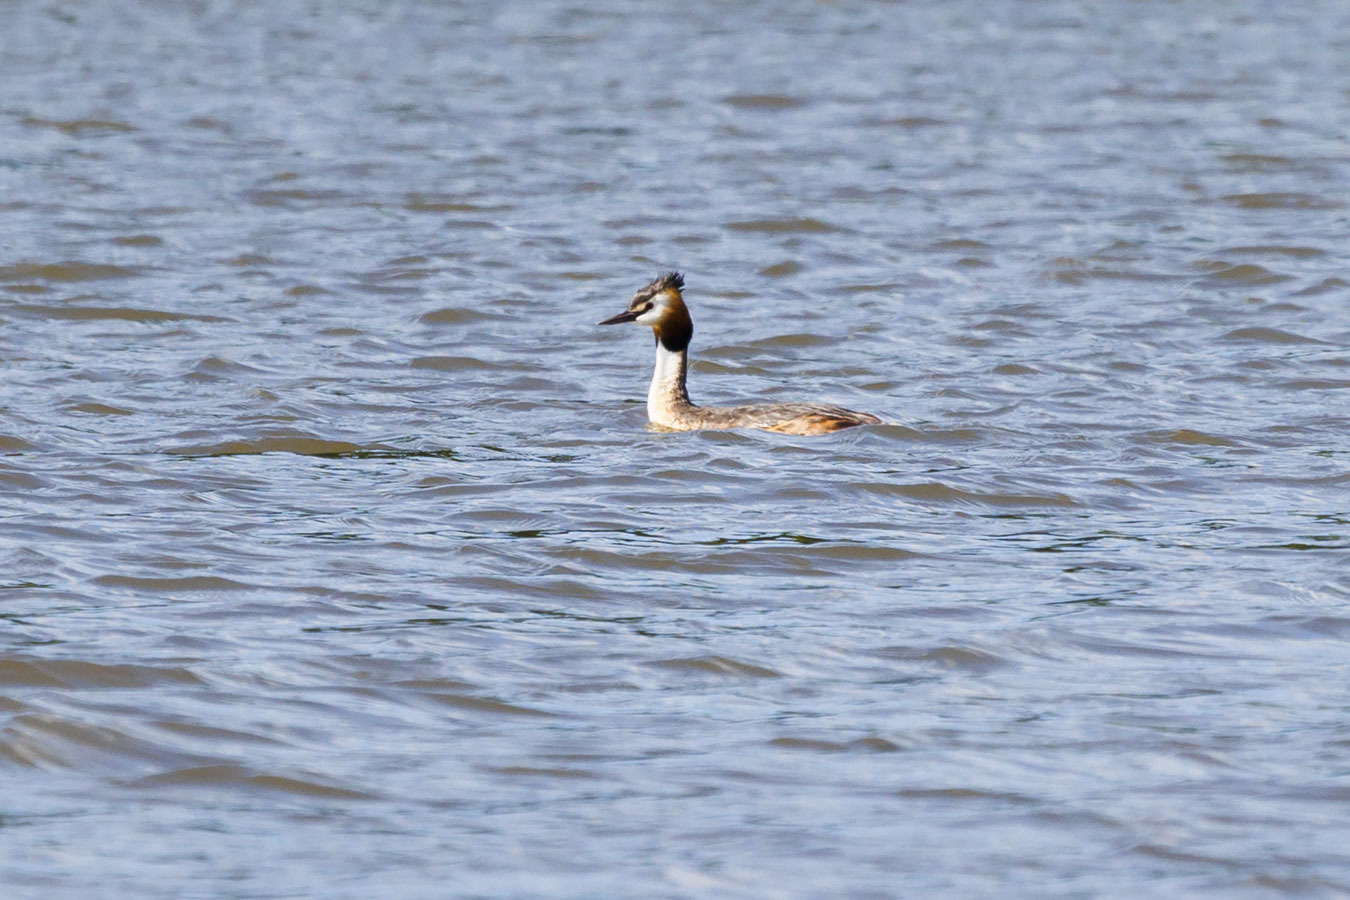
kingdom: Animalia
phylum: Chordata
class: Aves
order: Podicipediformes
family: Podicipedidae
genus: Podiceps
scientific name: Podiceps cristatus
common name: Great crested grebe
